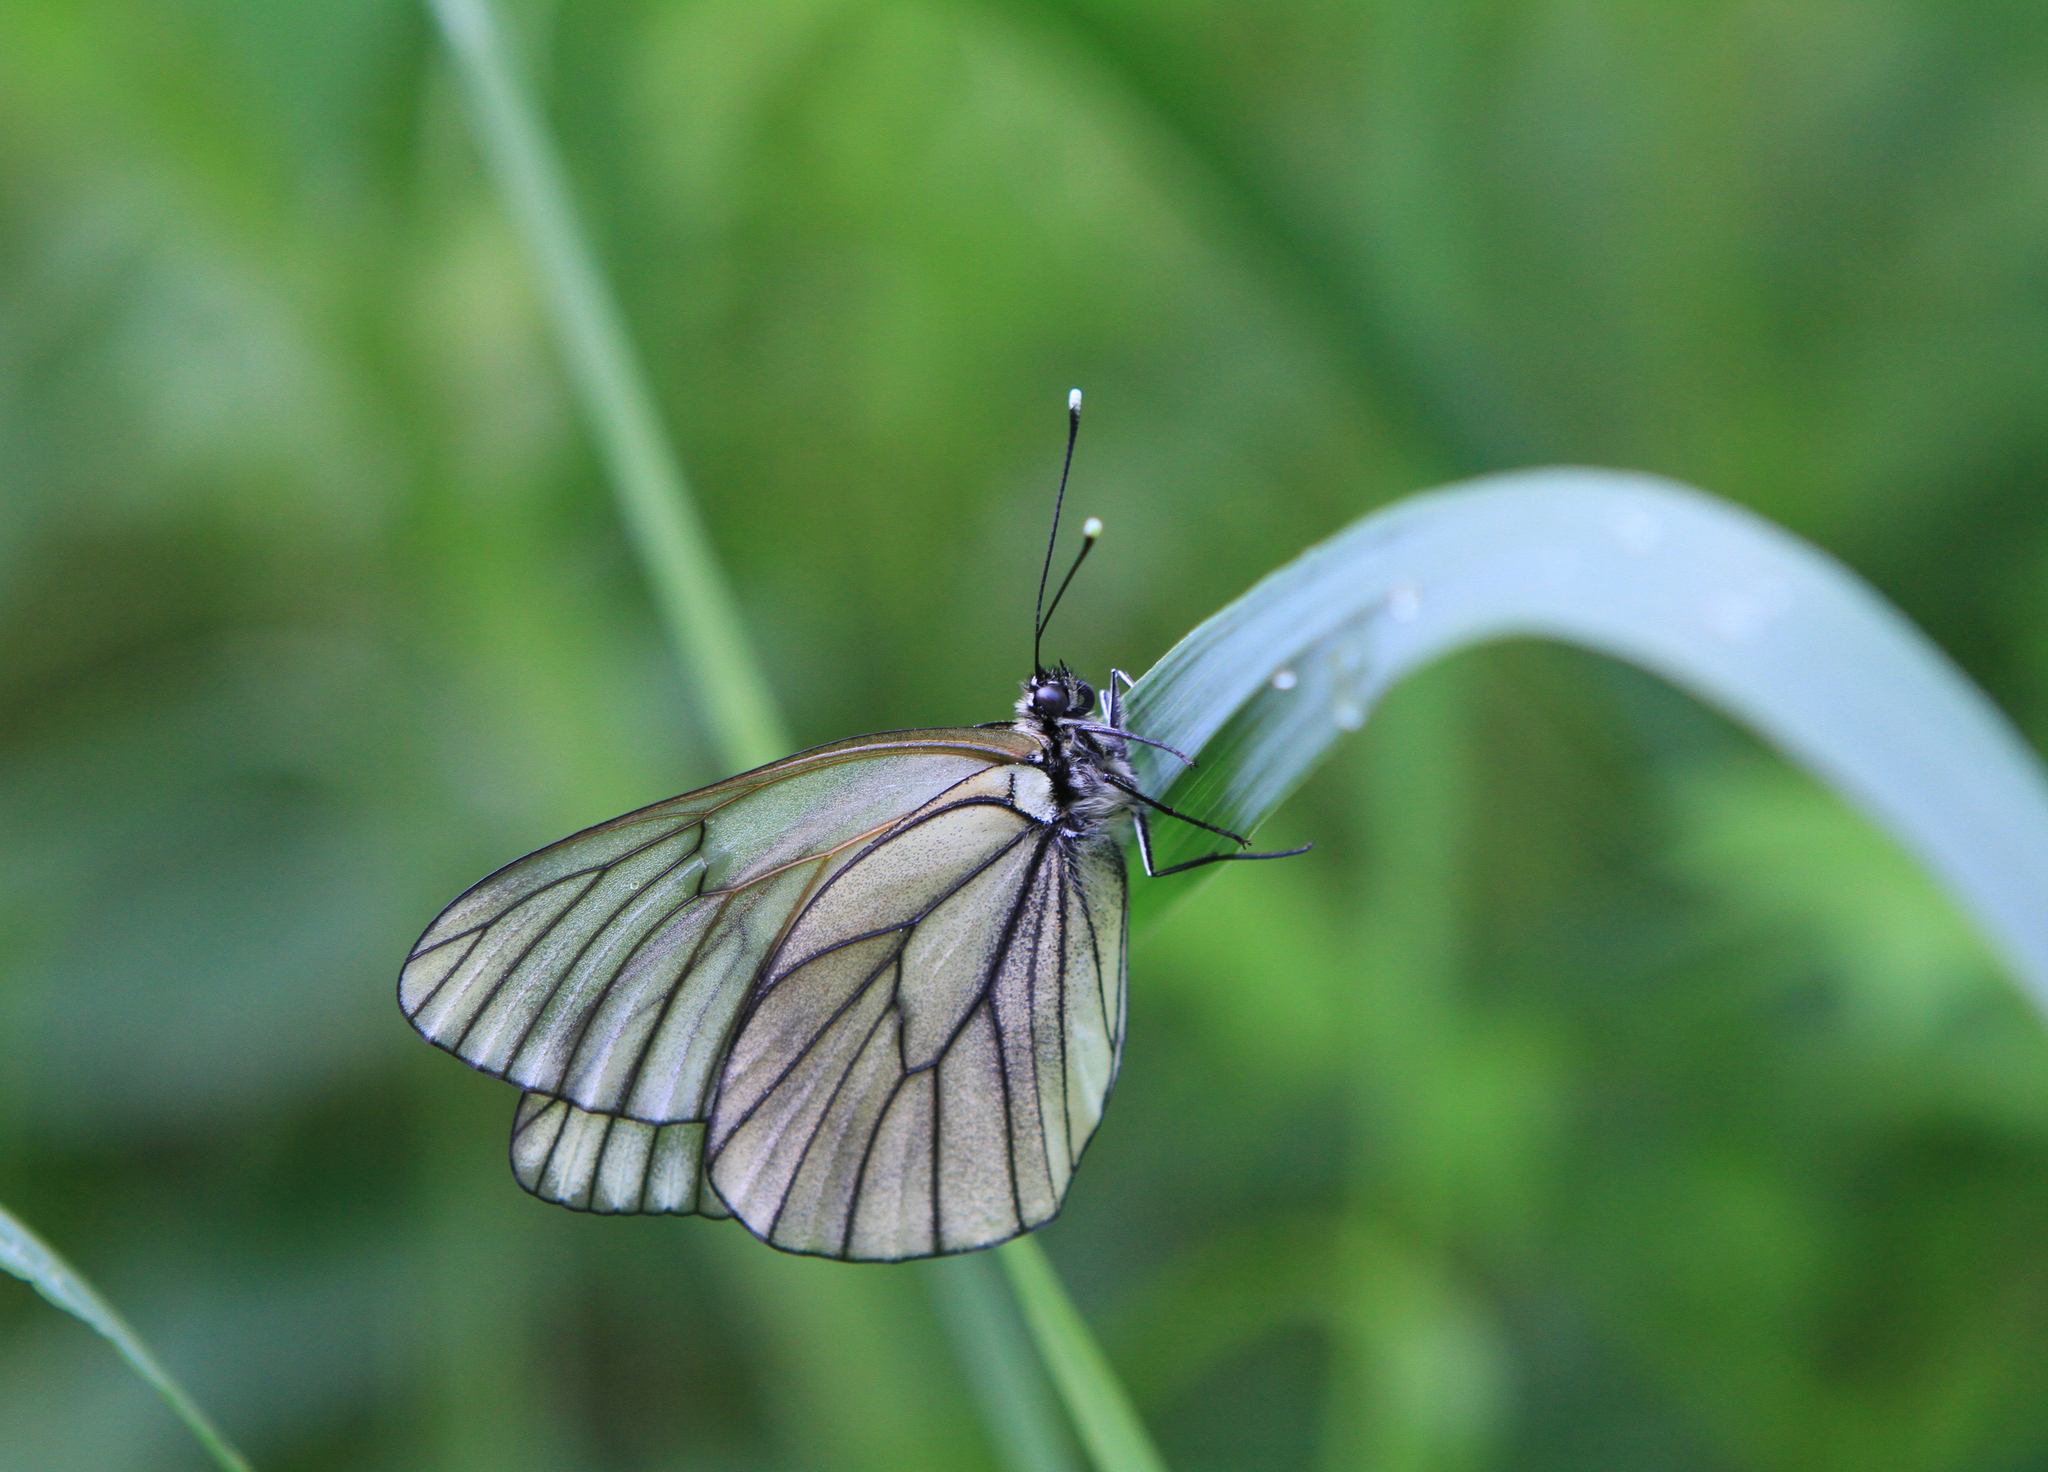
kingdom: Animalia
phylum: Arthropoda
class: Insecta
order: Lepidoptera
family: Pieridae
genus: Aporia
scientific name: Aporia crataegi
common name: Black-veined white
